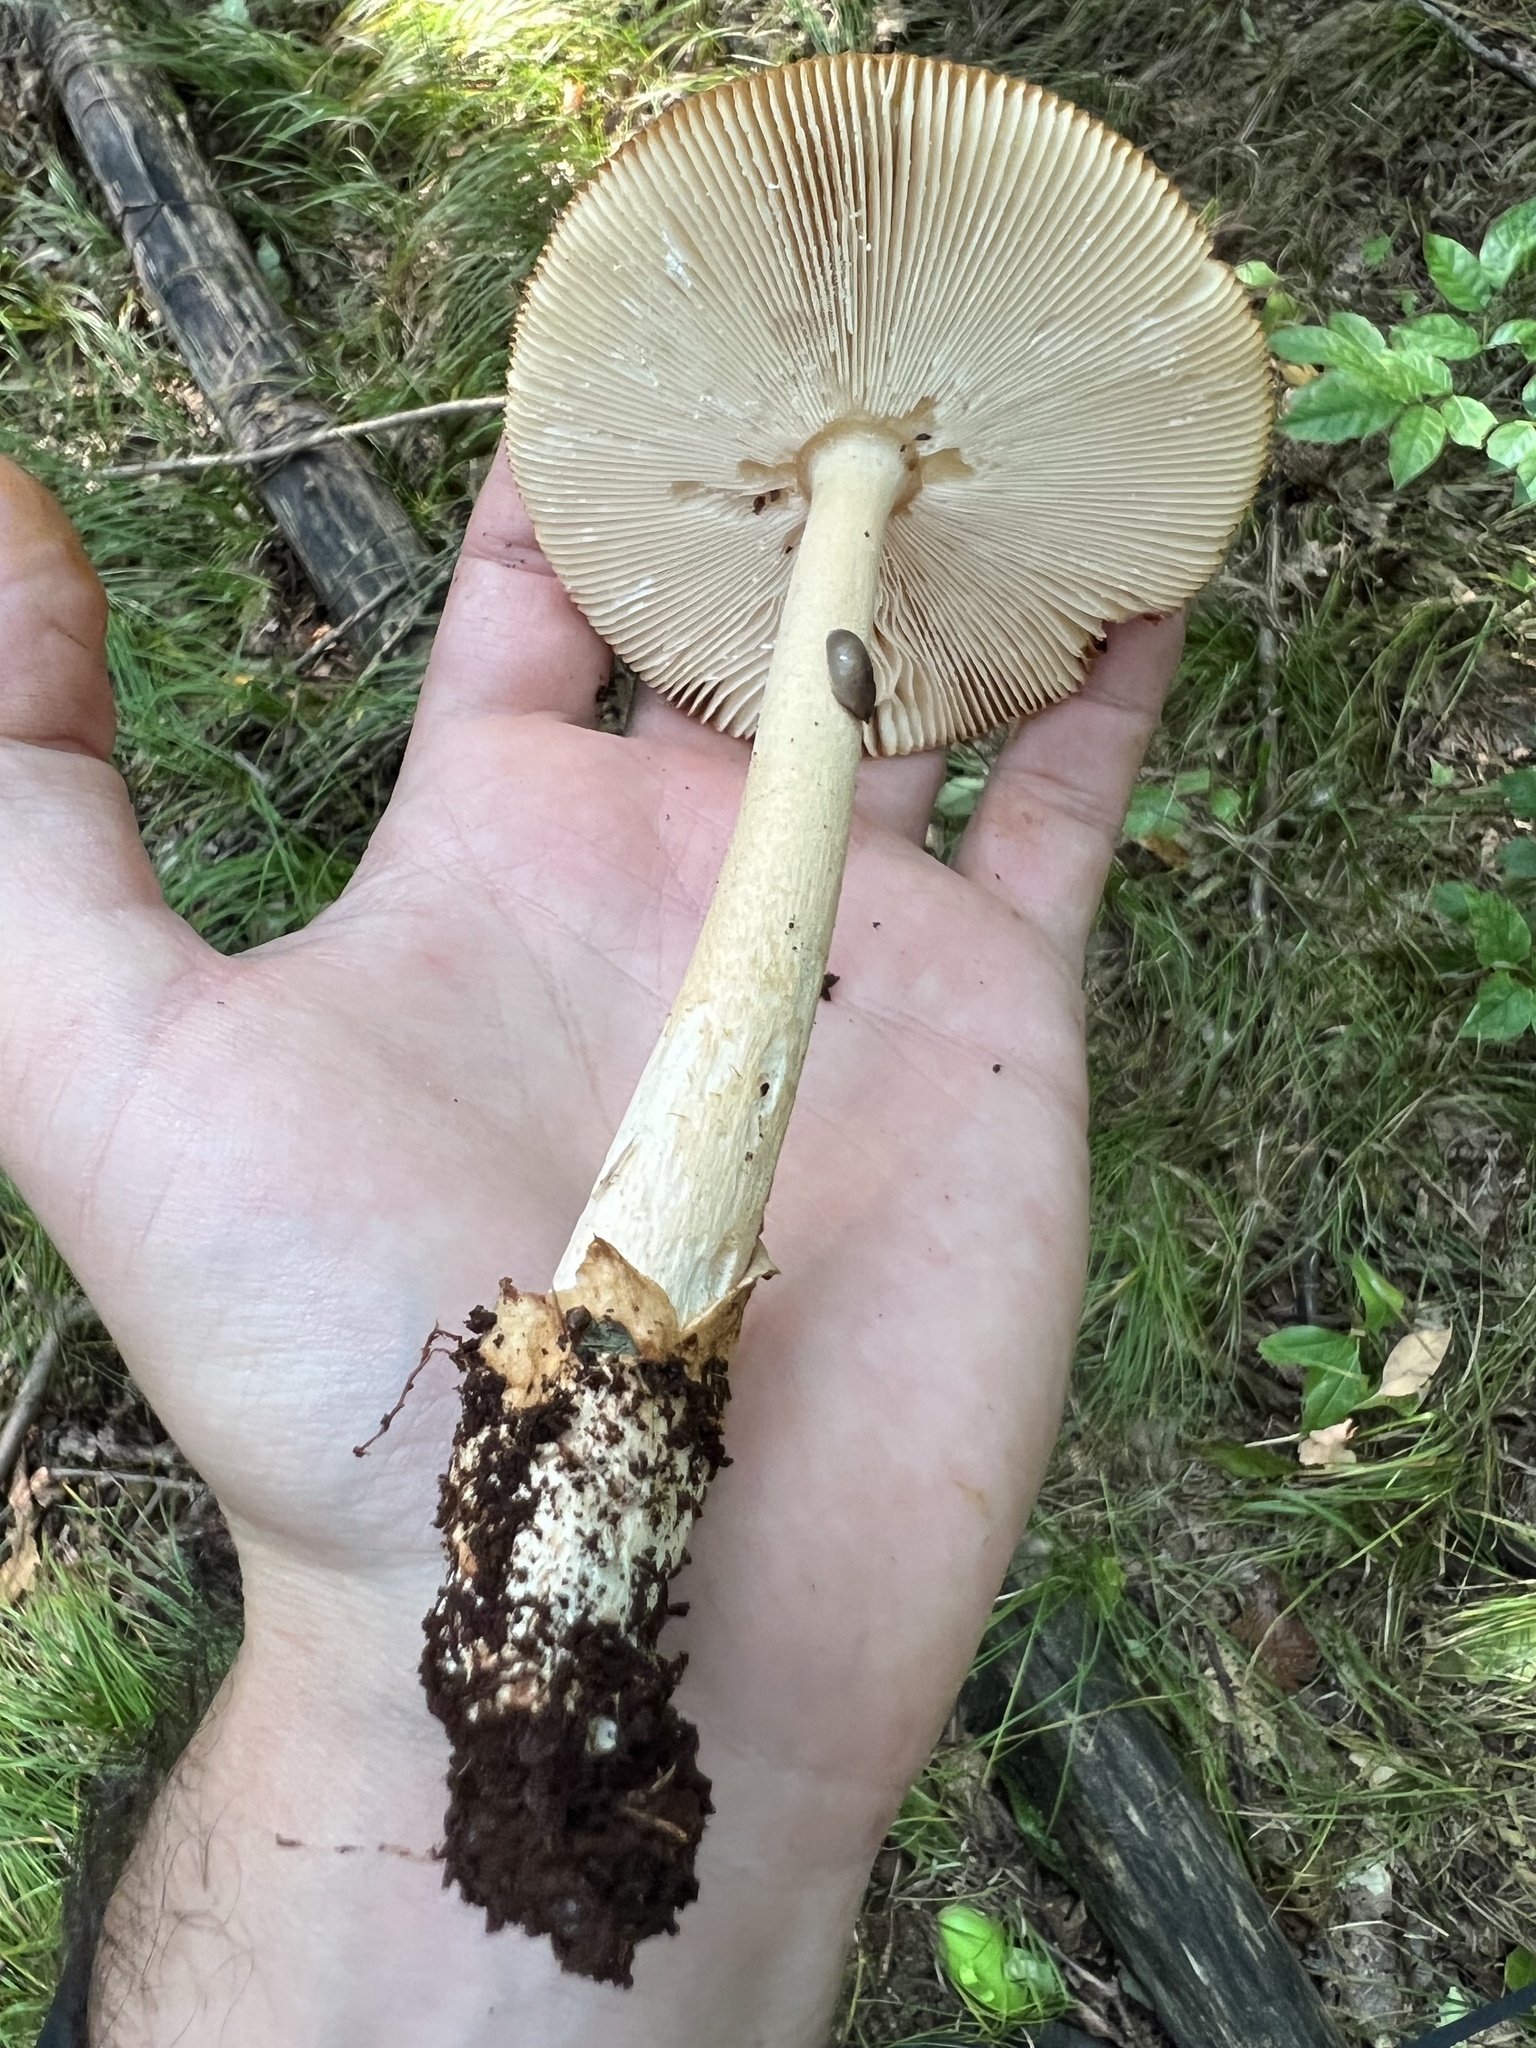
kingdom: Fungi
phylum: Basidiomycota
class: Agaricomycetes
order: Agaricales
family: Amanitaceae
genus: Amanita
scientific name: Amanita fulva
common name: Tawny grisette
